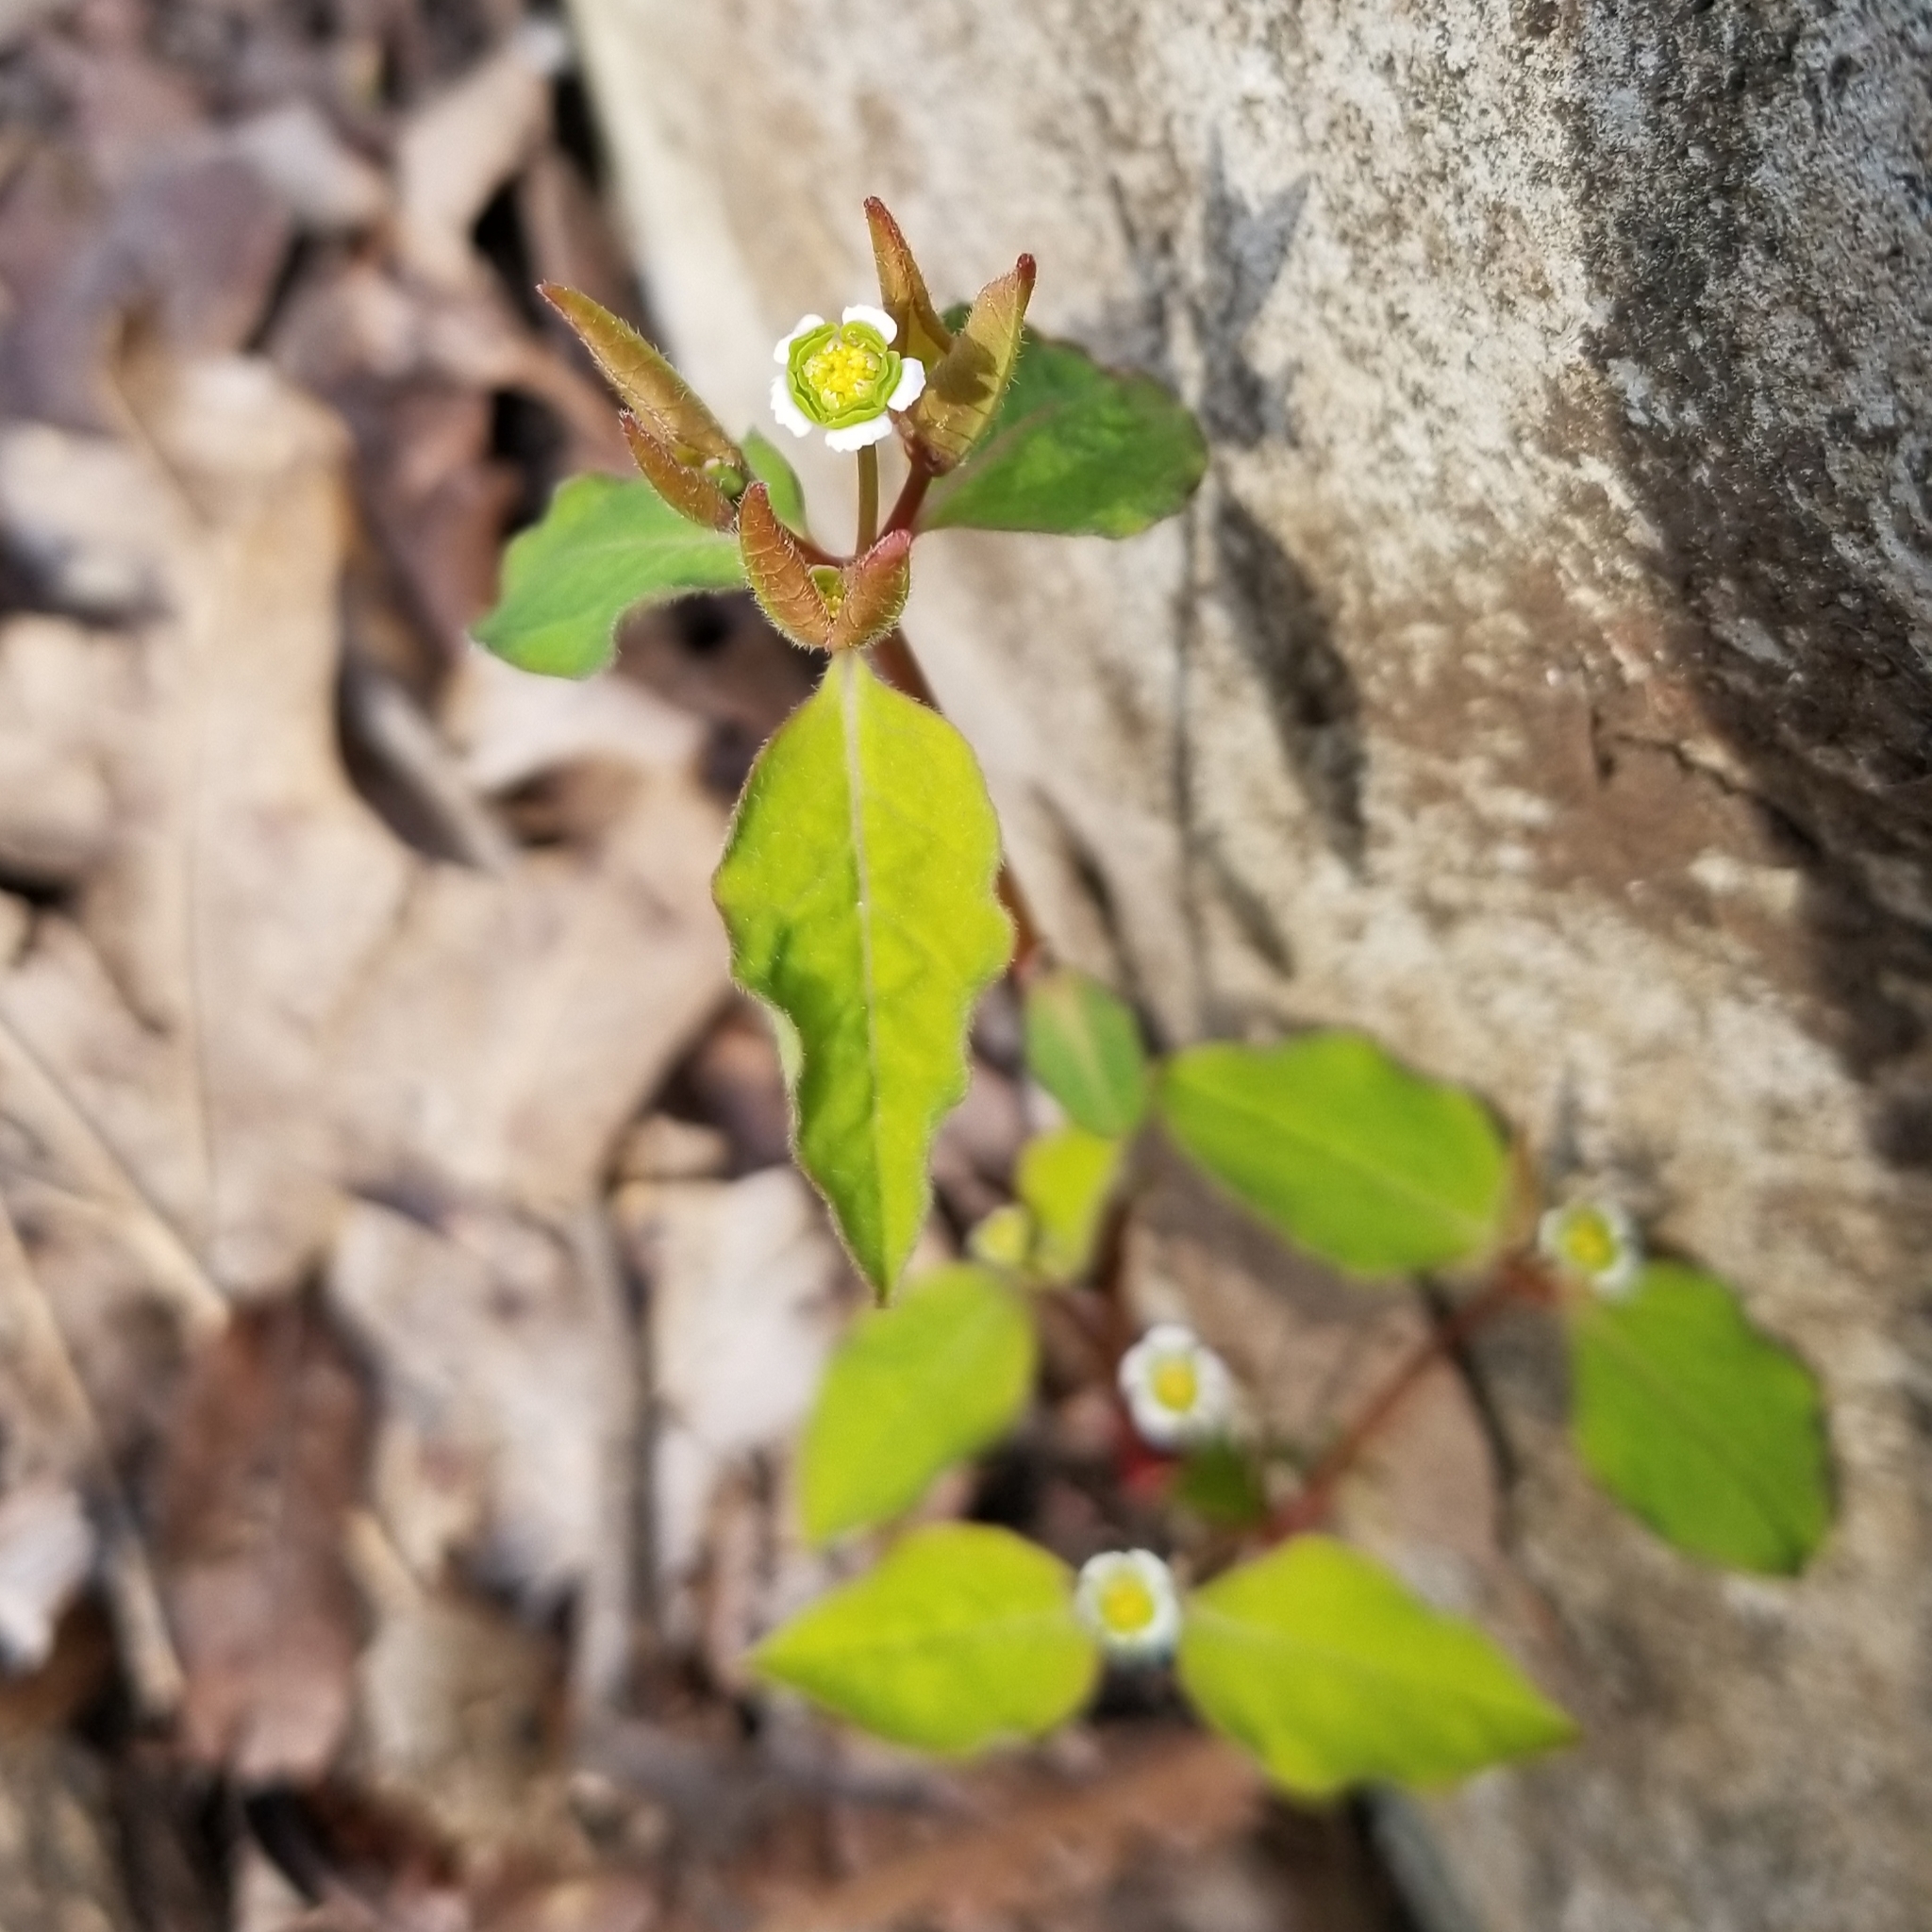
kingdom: Plantae
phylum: Tracheophyta
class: Magnoliopsida
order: Malpighiales
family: Euphorbiaceae
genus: Euphorbia
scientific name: Euphorbia mercurialina
